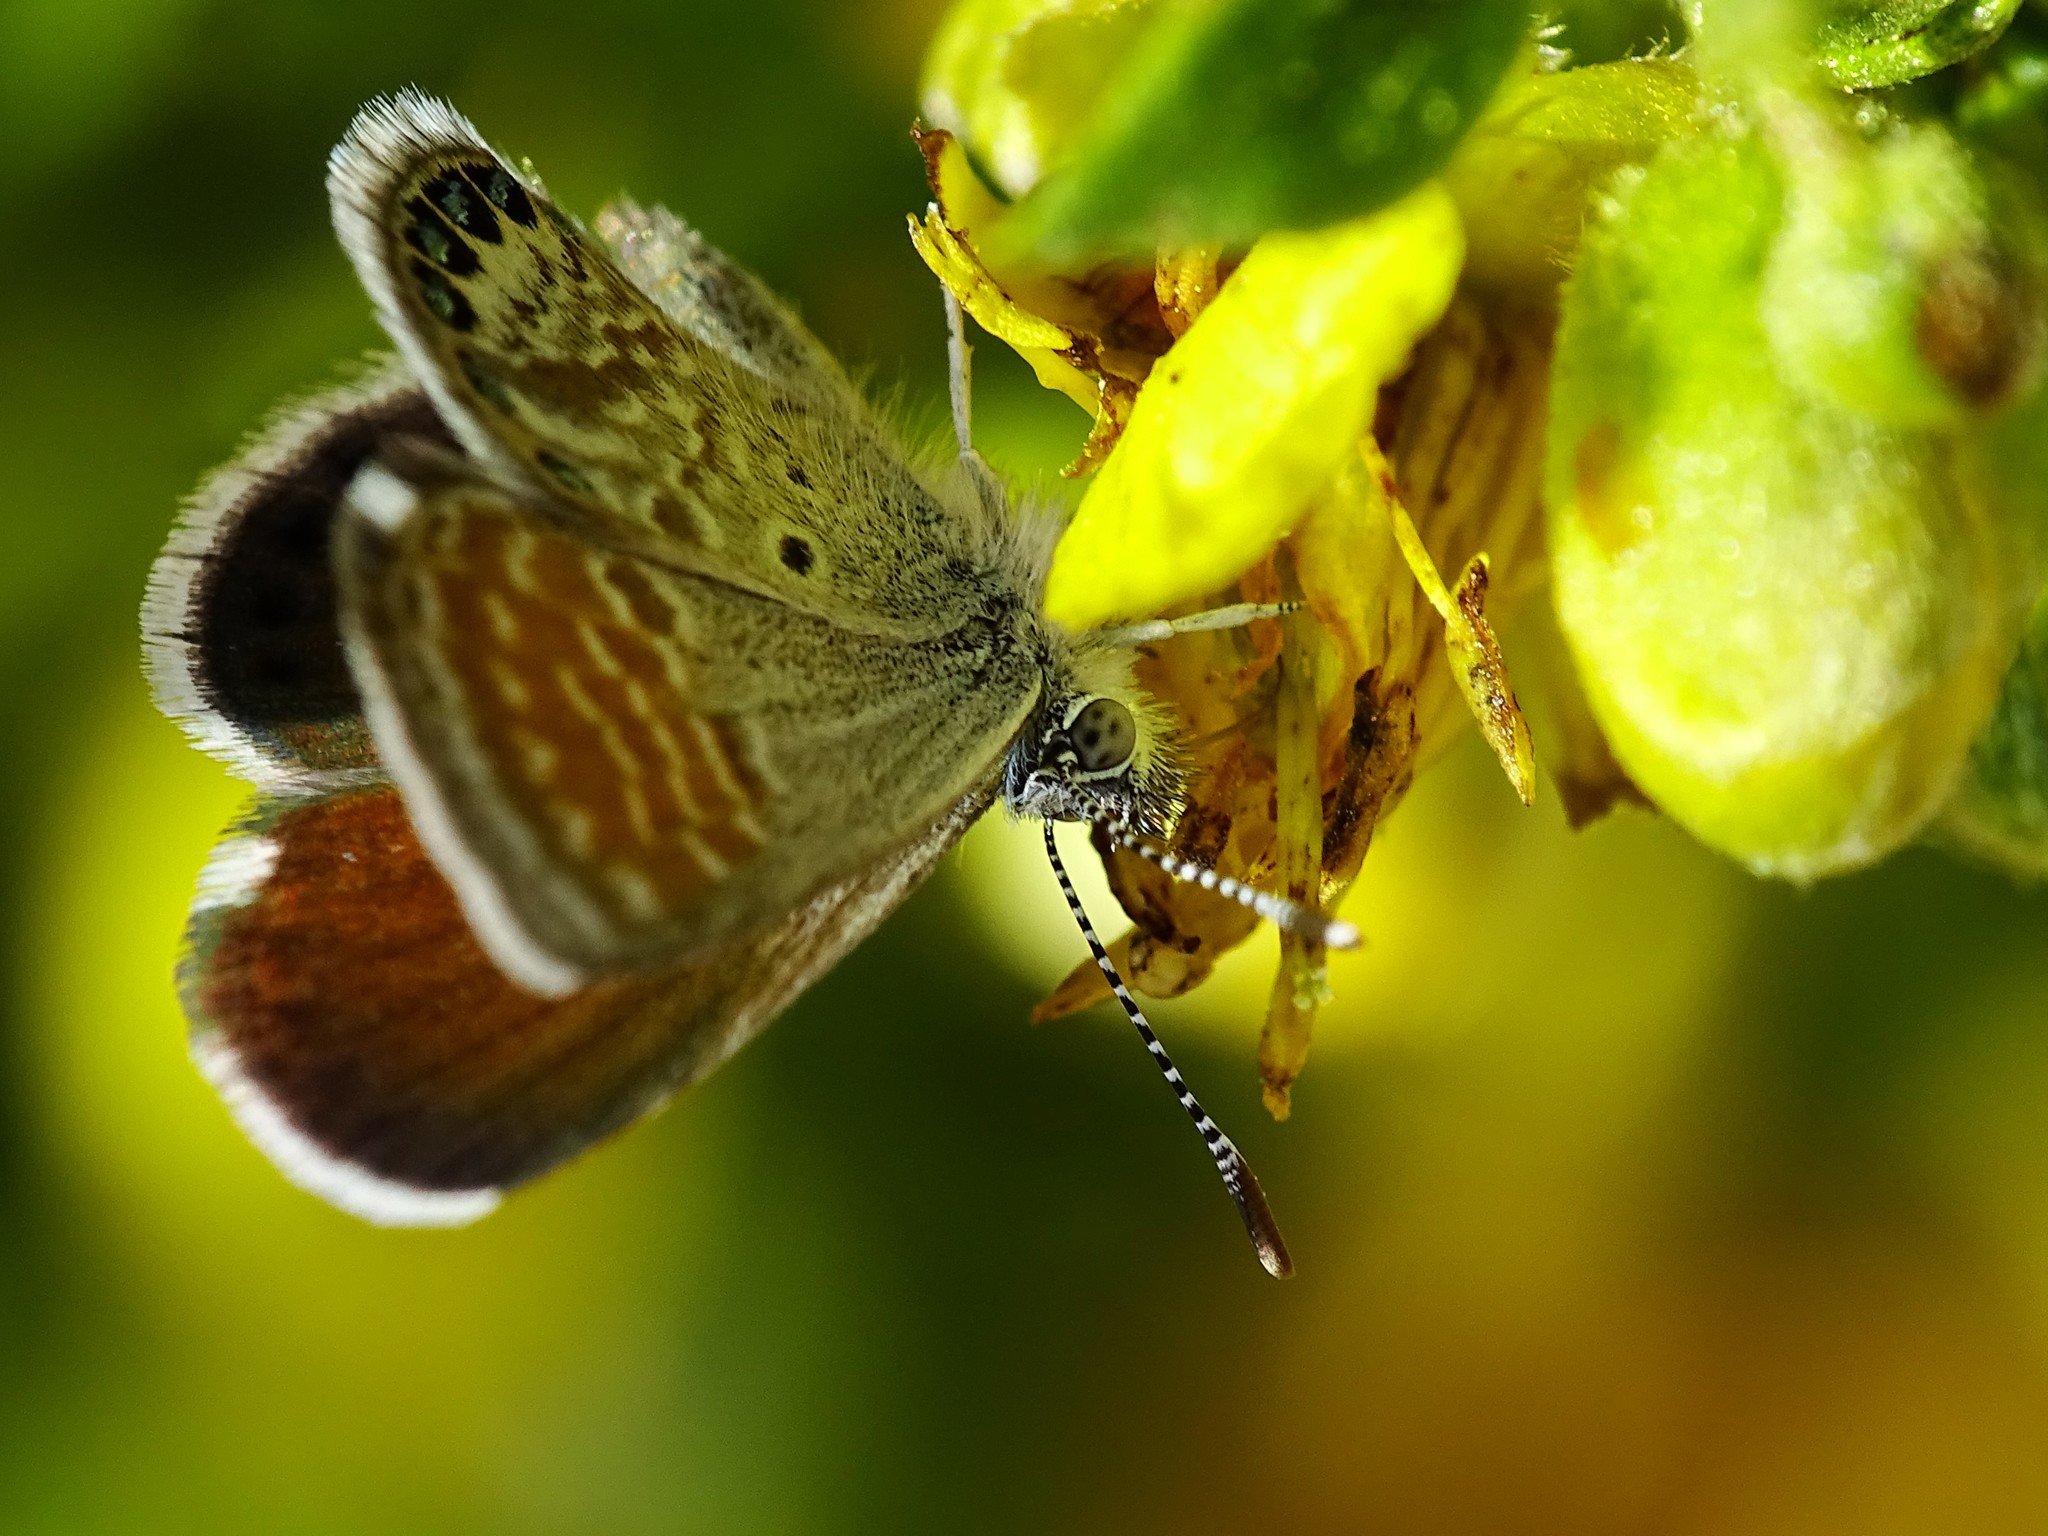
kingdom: Animalia
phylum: Arthropoda
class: Insecta
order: Lepidoptera
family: Lycaenidae
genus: Brephidium
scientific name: Brephidium exilis
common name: Pygmy blue
